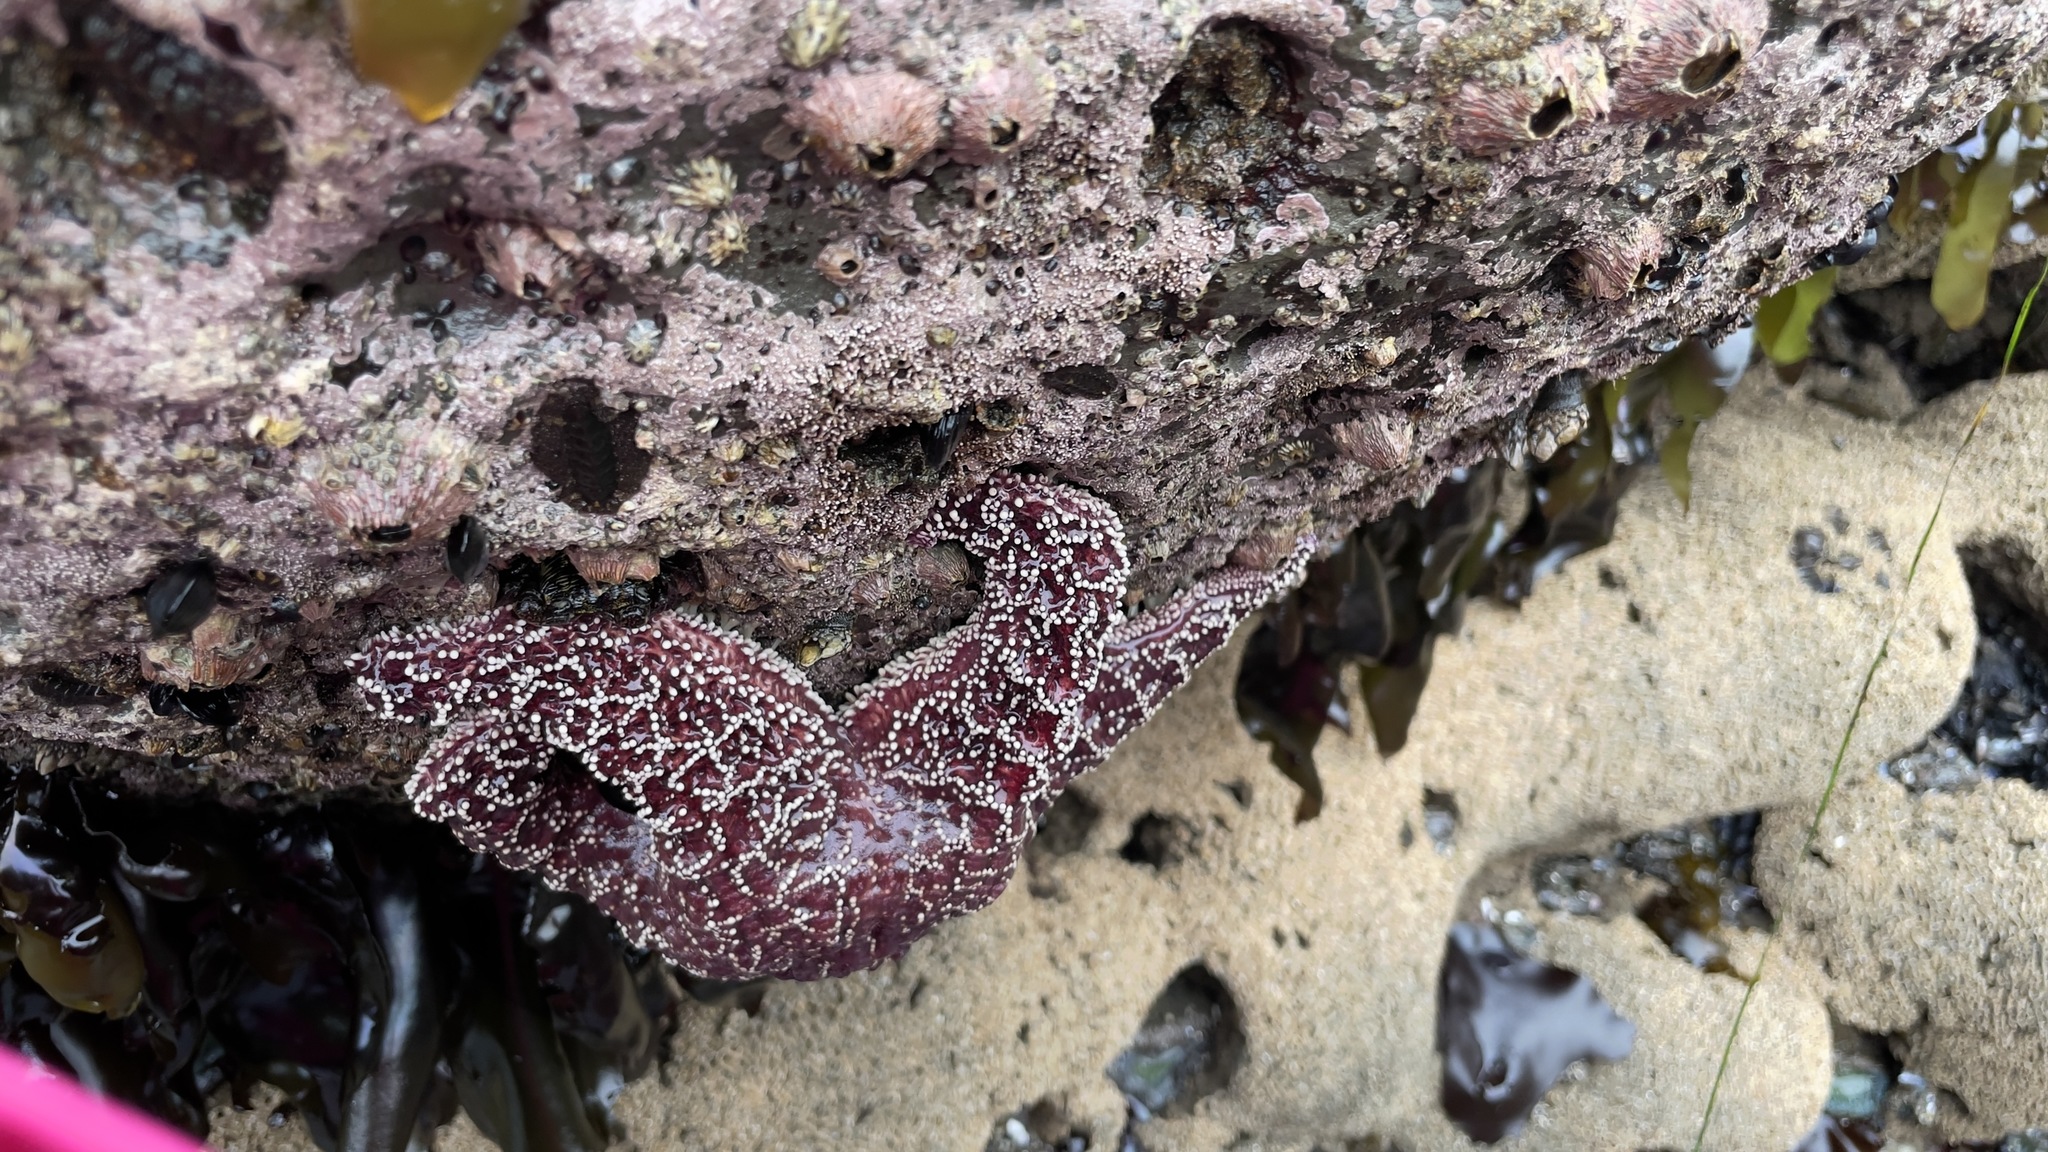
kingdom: Animalia
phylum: Echinodermata
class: Asteroidea
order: Forcipulatida
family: Asteriidae
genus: Pisaster
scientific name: Pisaster ochraceus
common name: Ochre stars
